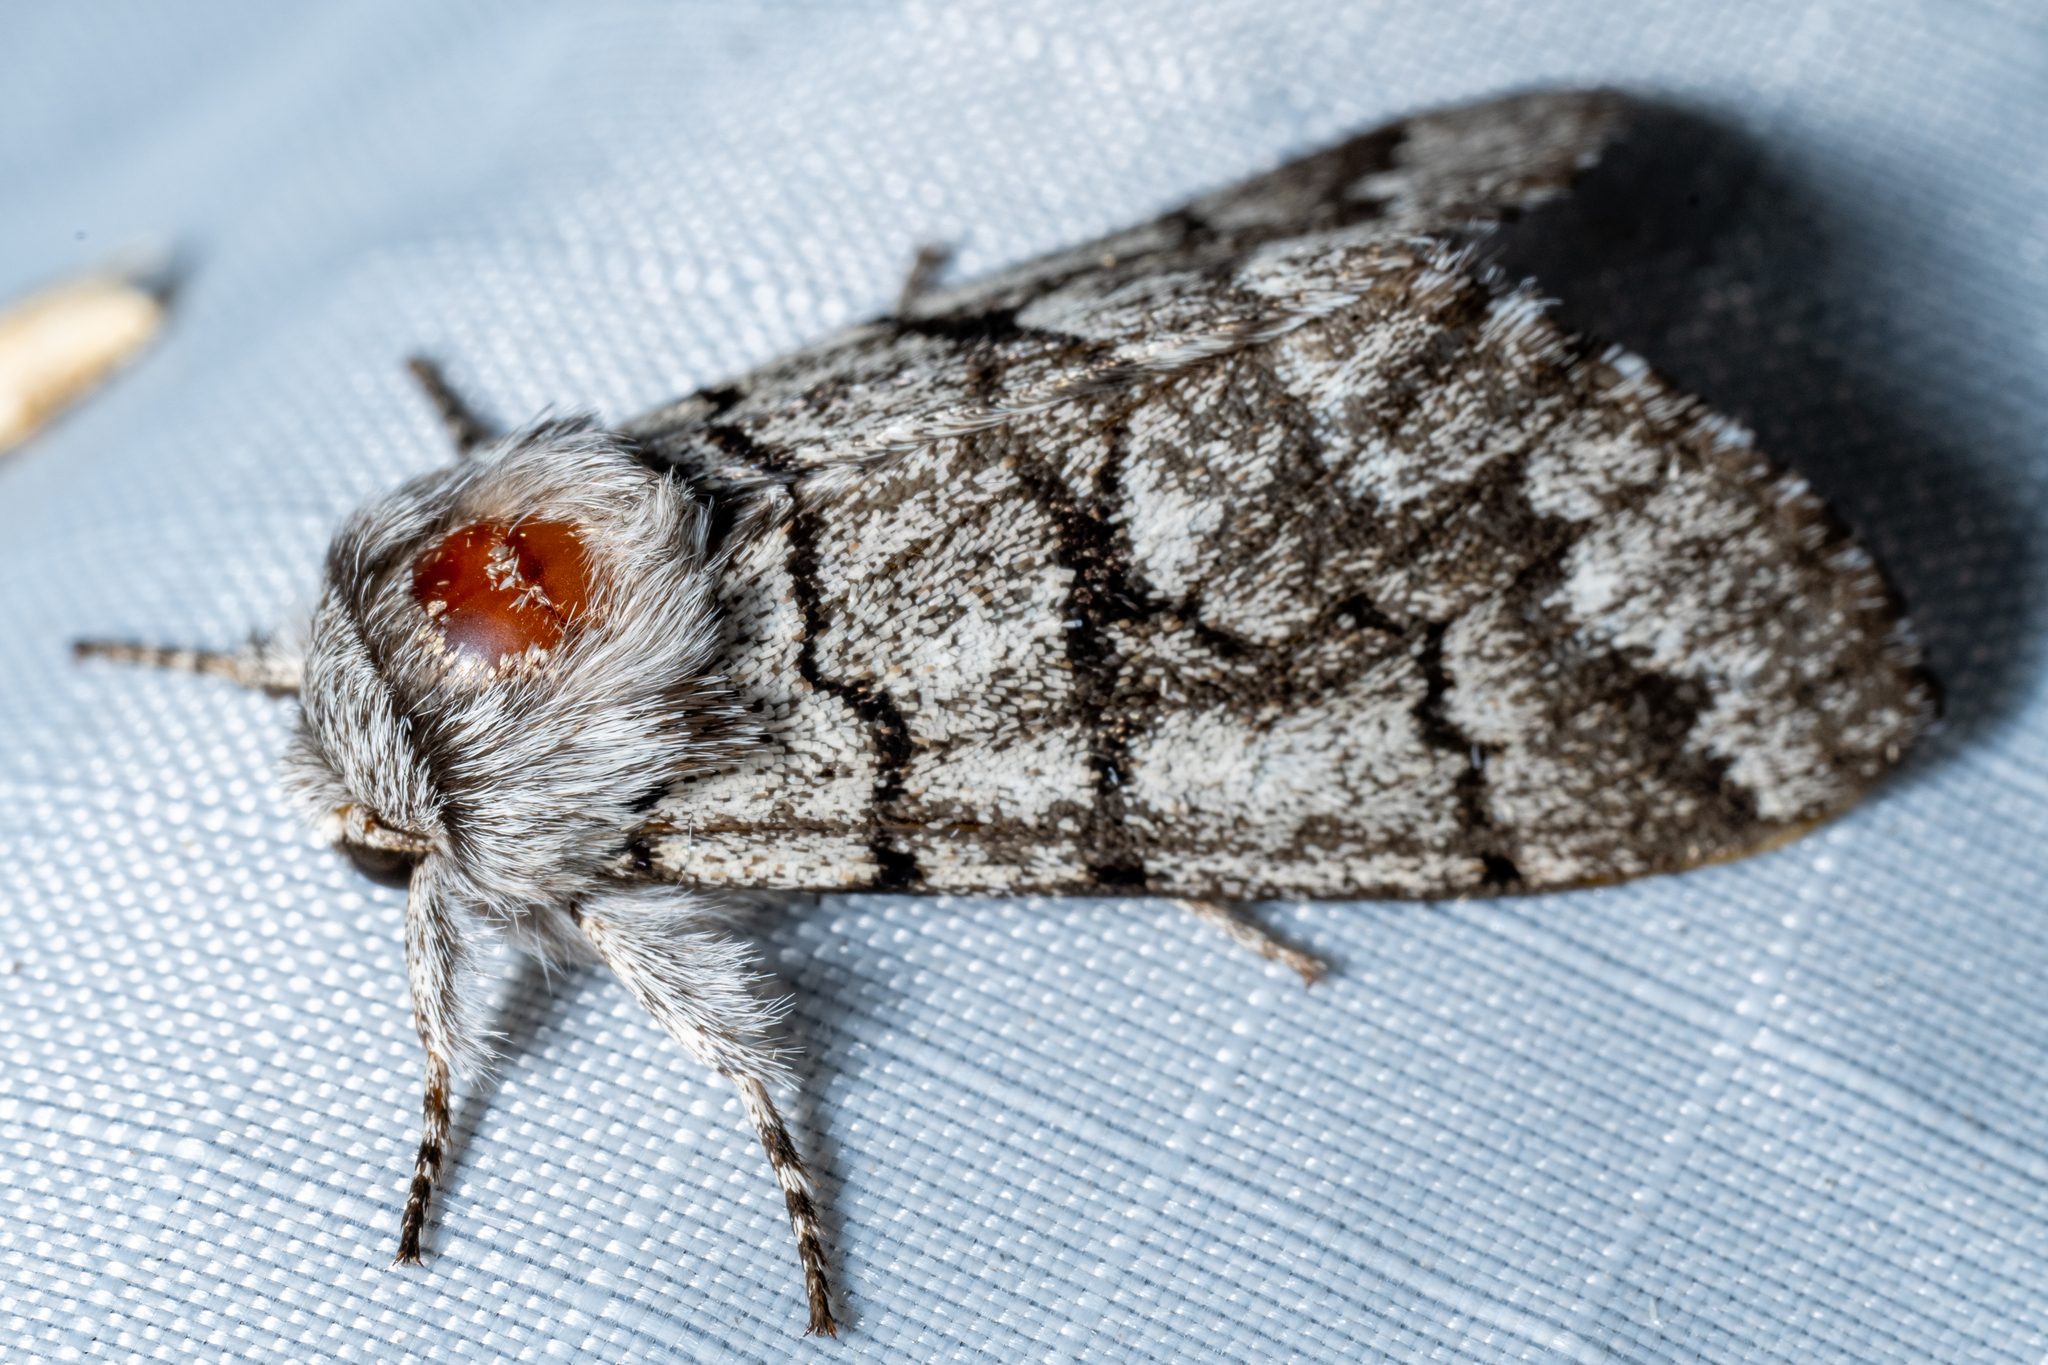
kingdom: Animalia
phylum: Arthropoda
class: Insecta
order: Lepidoptera
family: Noctuidae
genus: Panthea
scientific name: Panthea furcilla
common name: Eastern panthea moth
